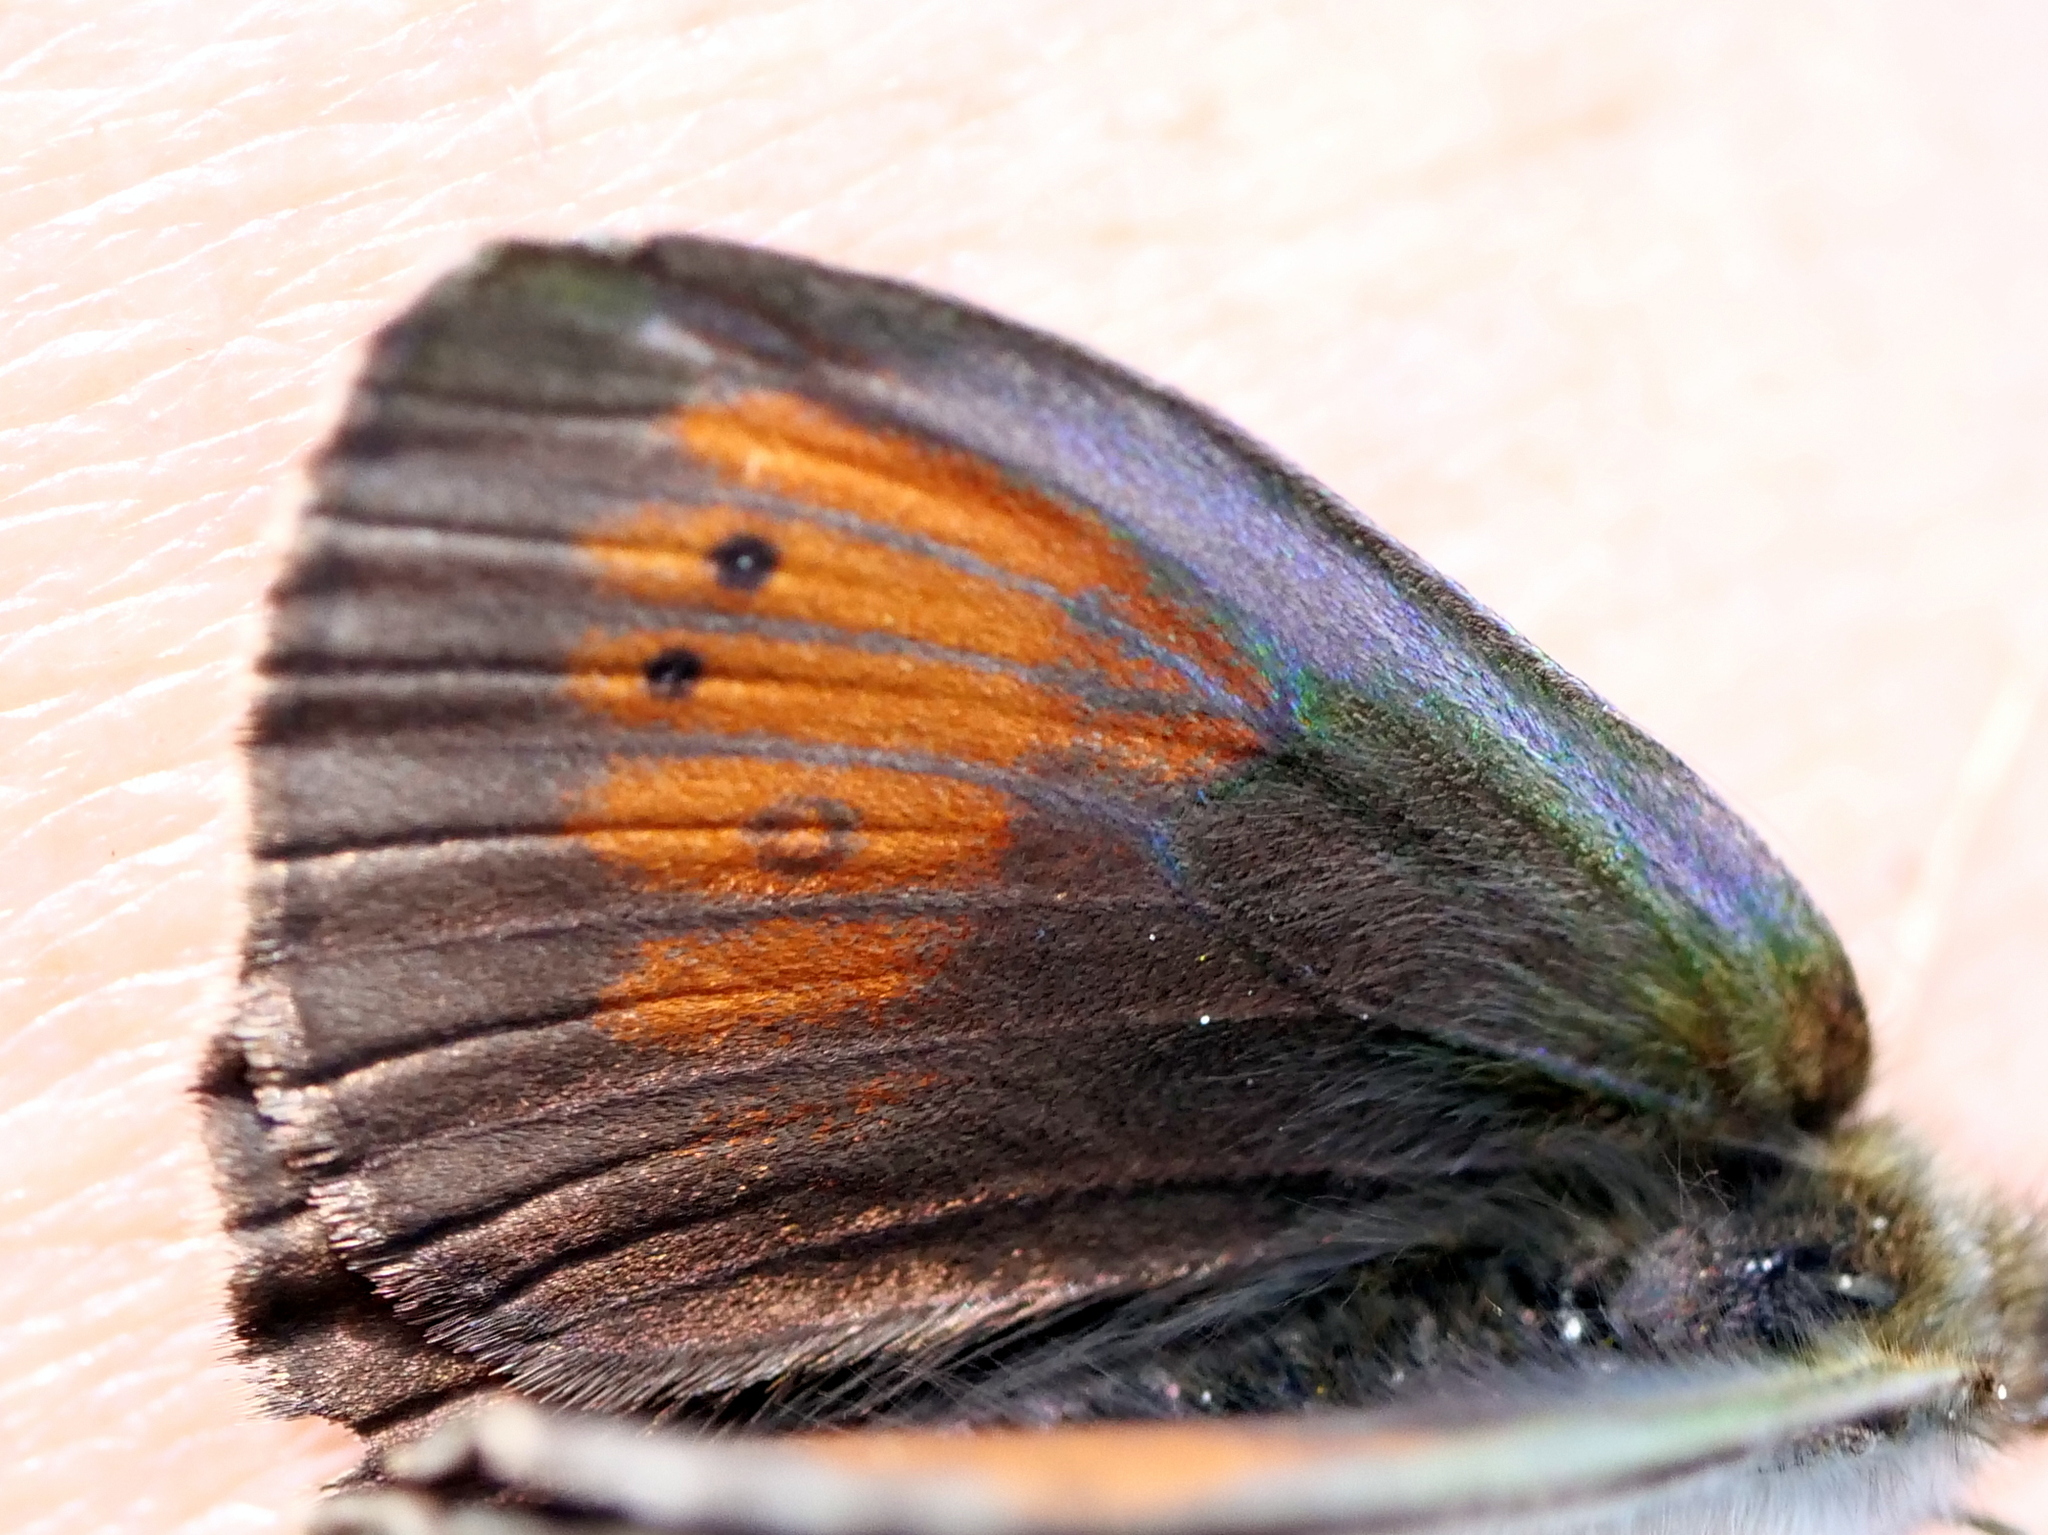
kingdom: Animalia
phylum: Arthropoda
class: Insecta
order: Lepidoptera
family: Nymphalidae
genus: Erebia
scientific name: Erebia tyndarus
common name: Swiss brassy ringlet
